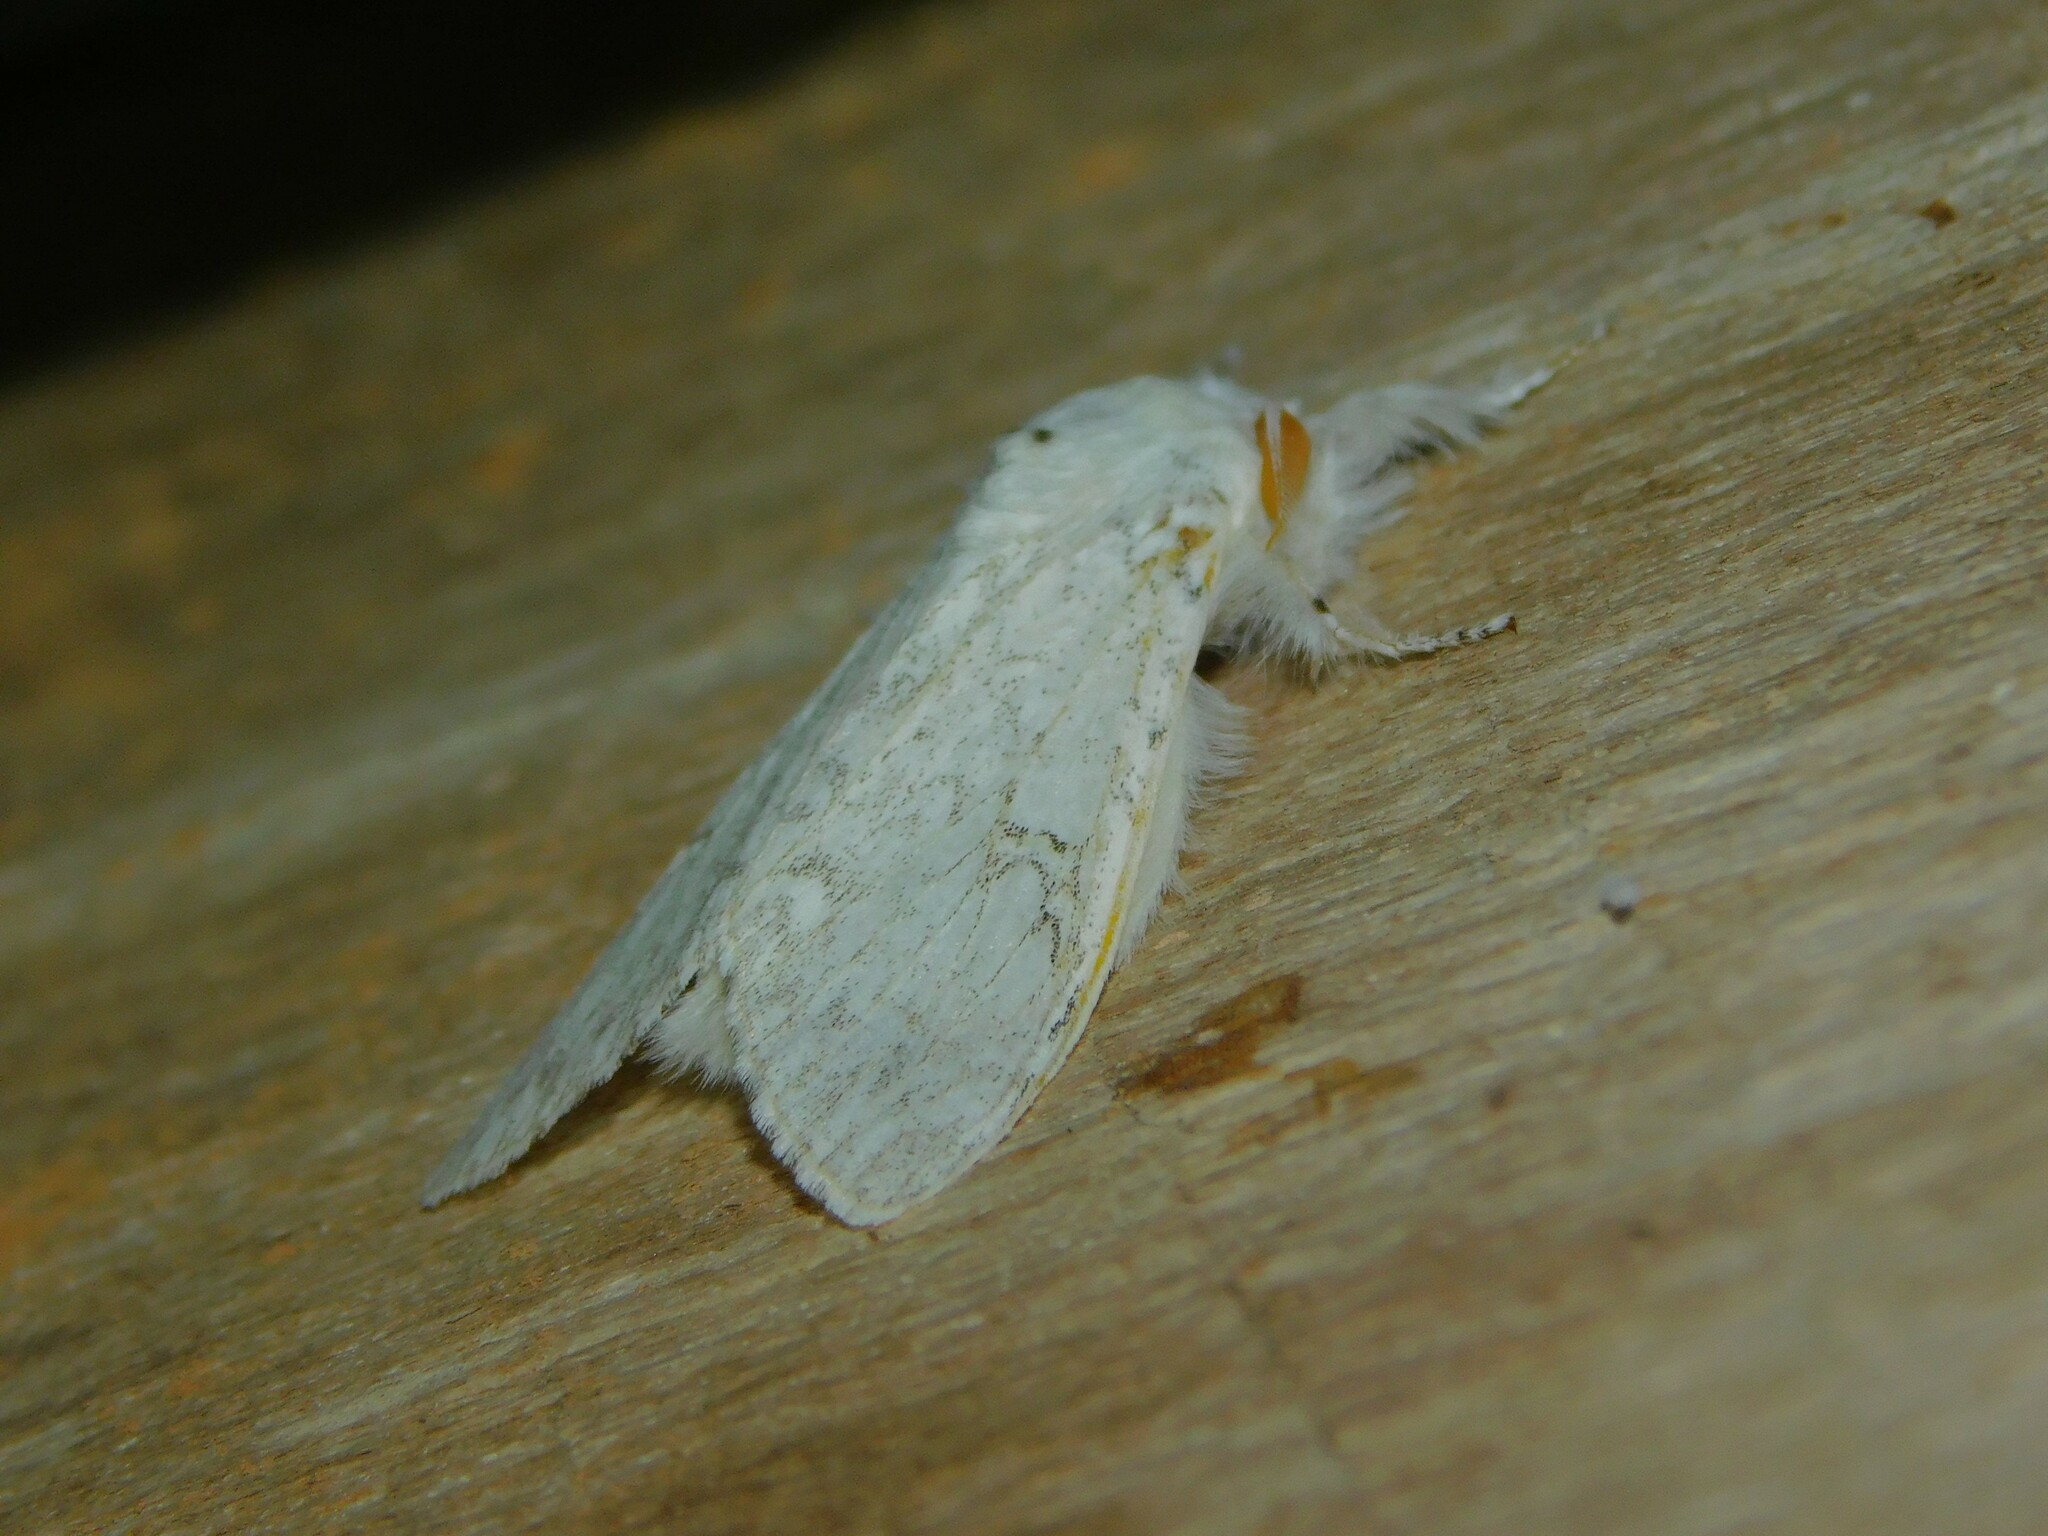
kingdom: Animalia
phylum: Arthropoda
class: Insecta
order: Lepidoptera
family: Erebidae
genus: Dasychira
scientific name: Dasychira georgiana
